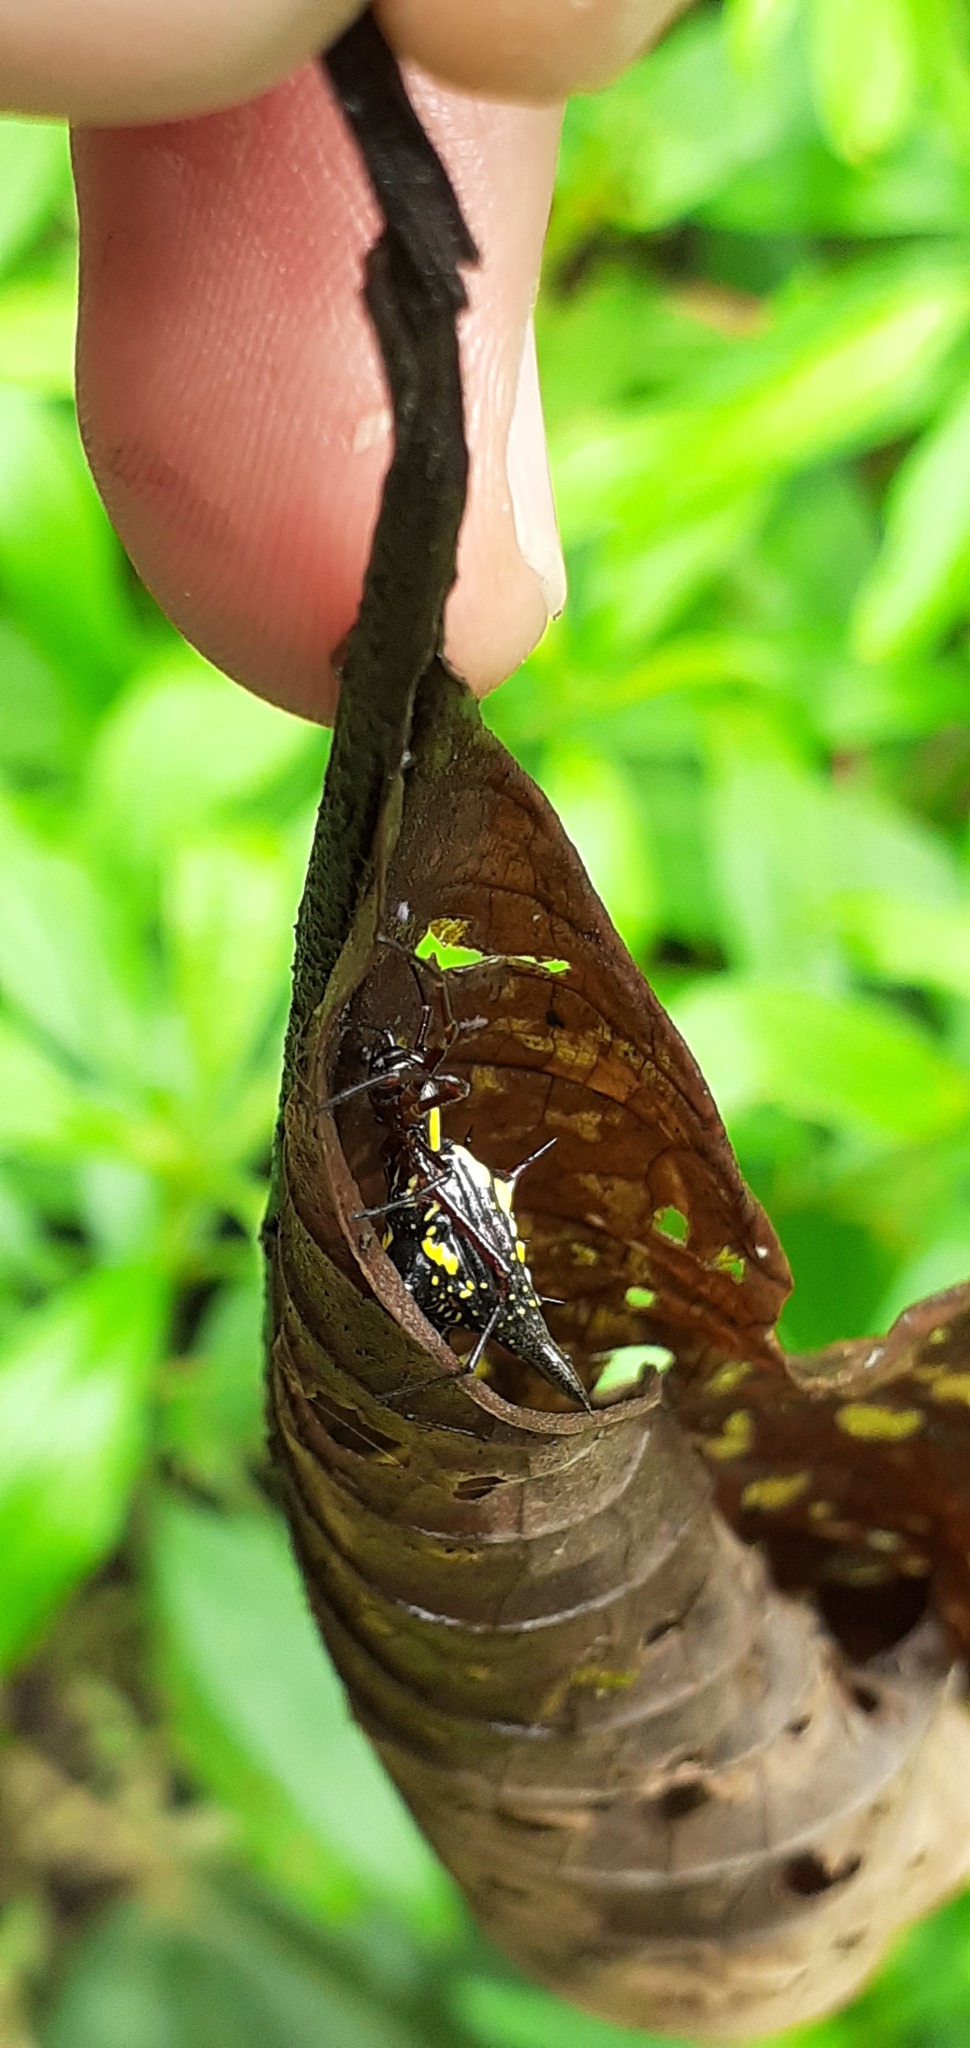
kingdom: Animalia
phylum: Arthropoda
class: Arachnida
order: Araneae
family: Araneidae
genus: Micrathena
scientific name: Micrathena pichincha
